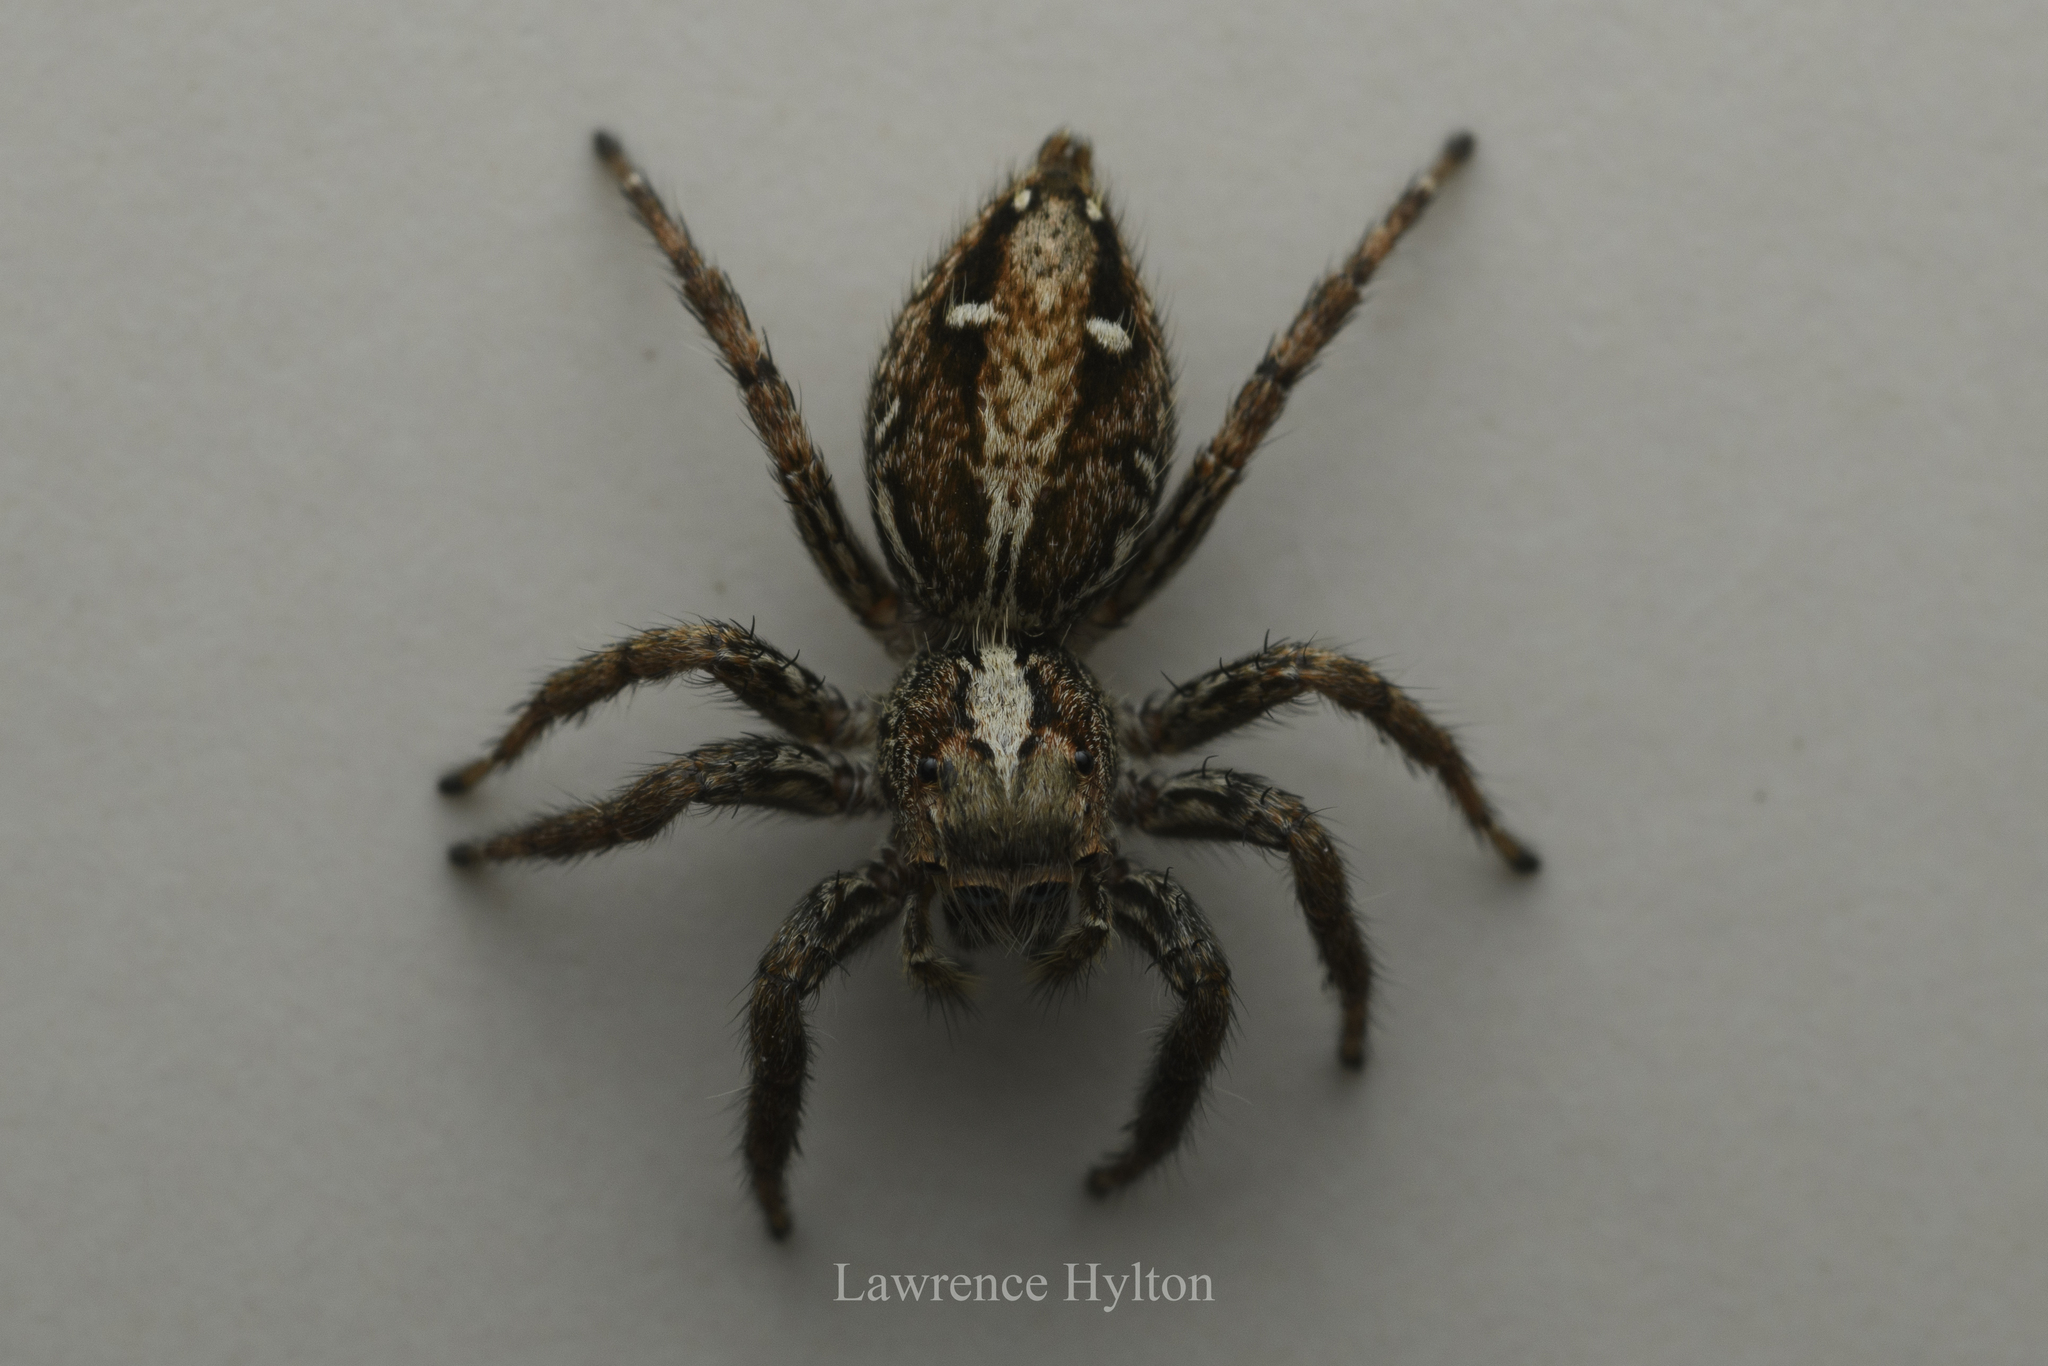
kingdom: Animalia
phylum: Arthropoda
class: Arachnida
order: Araneae
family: Salticidae
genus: Plexippus
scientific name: Plexippus paykulli
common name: Pantropical jumper
